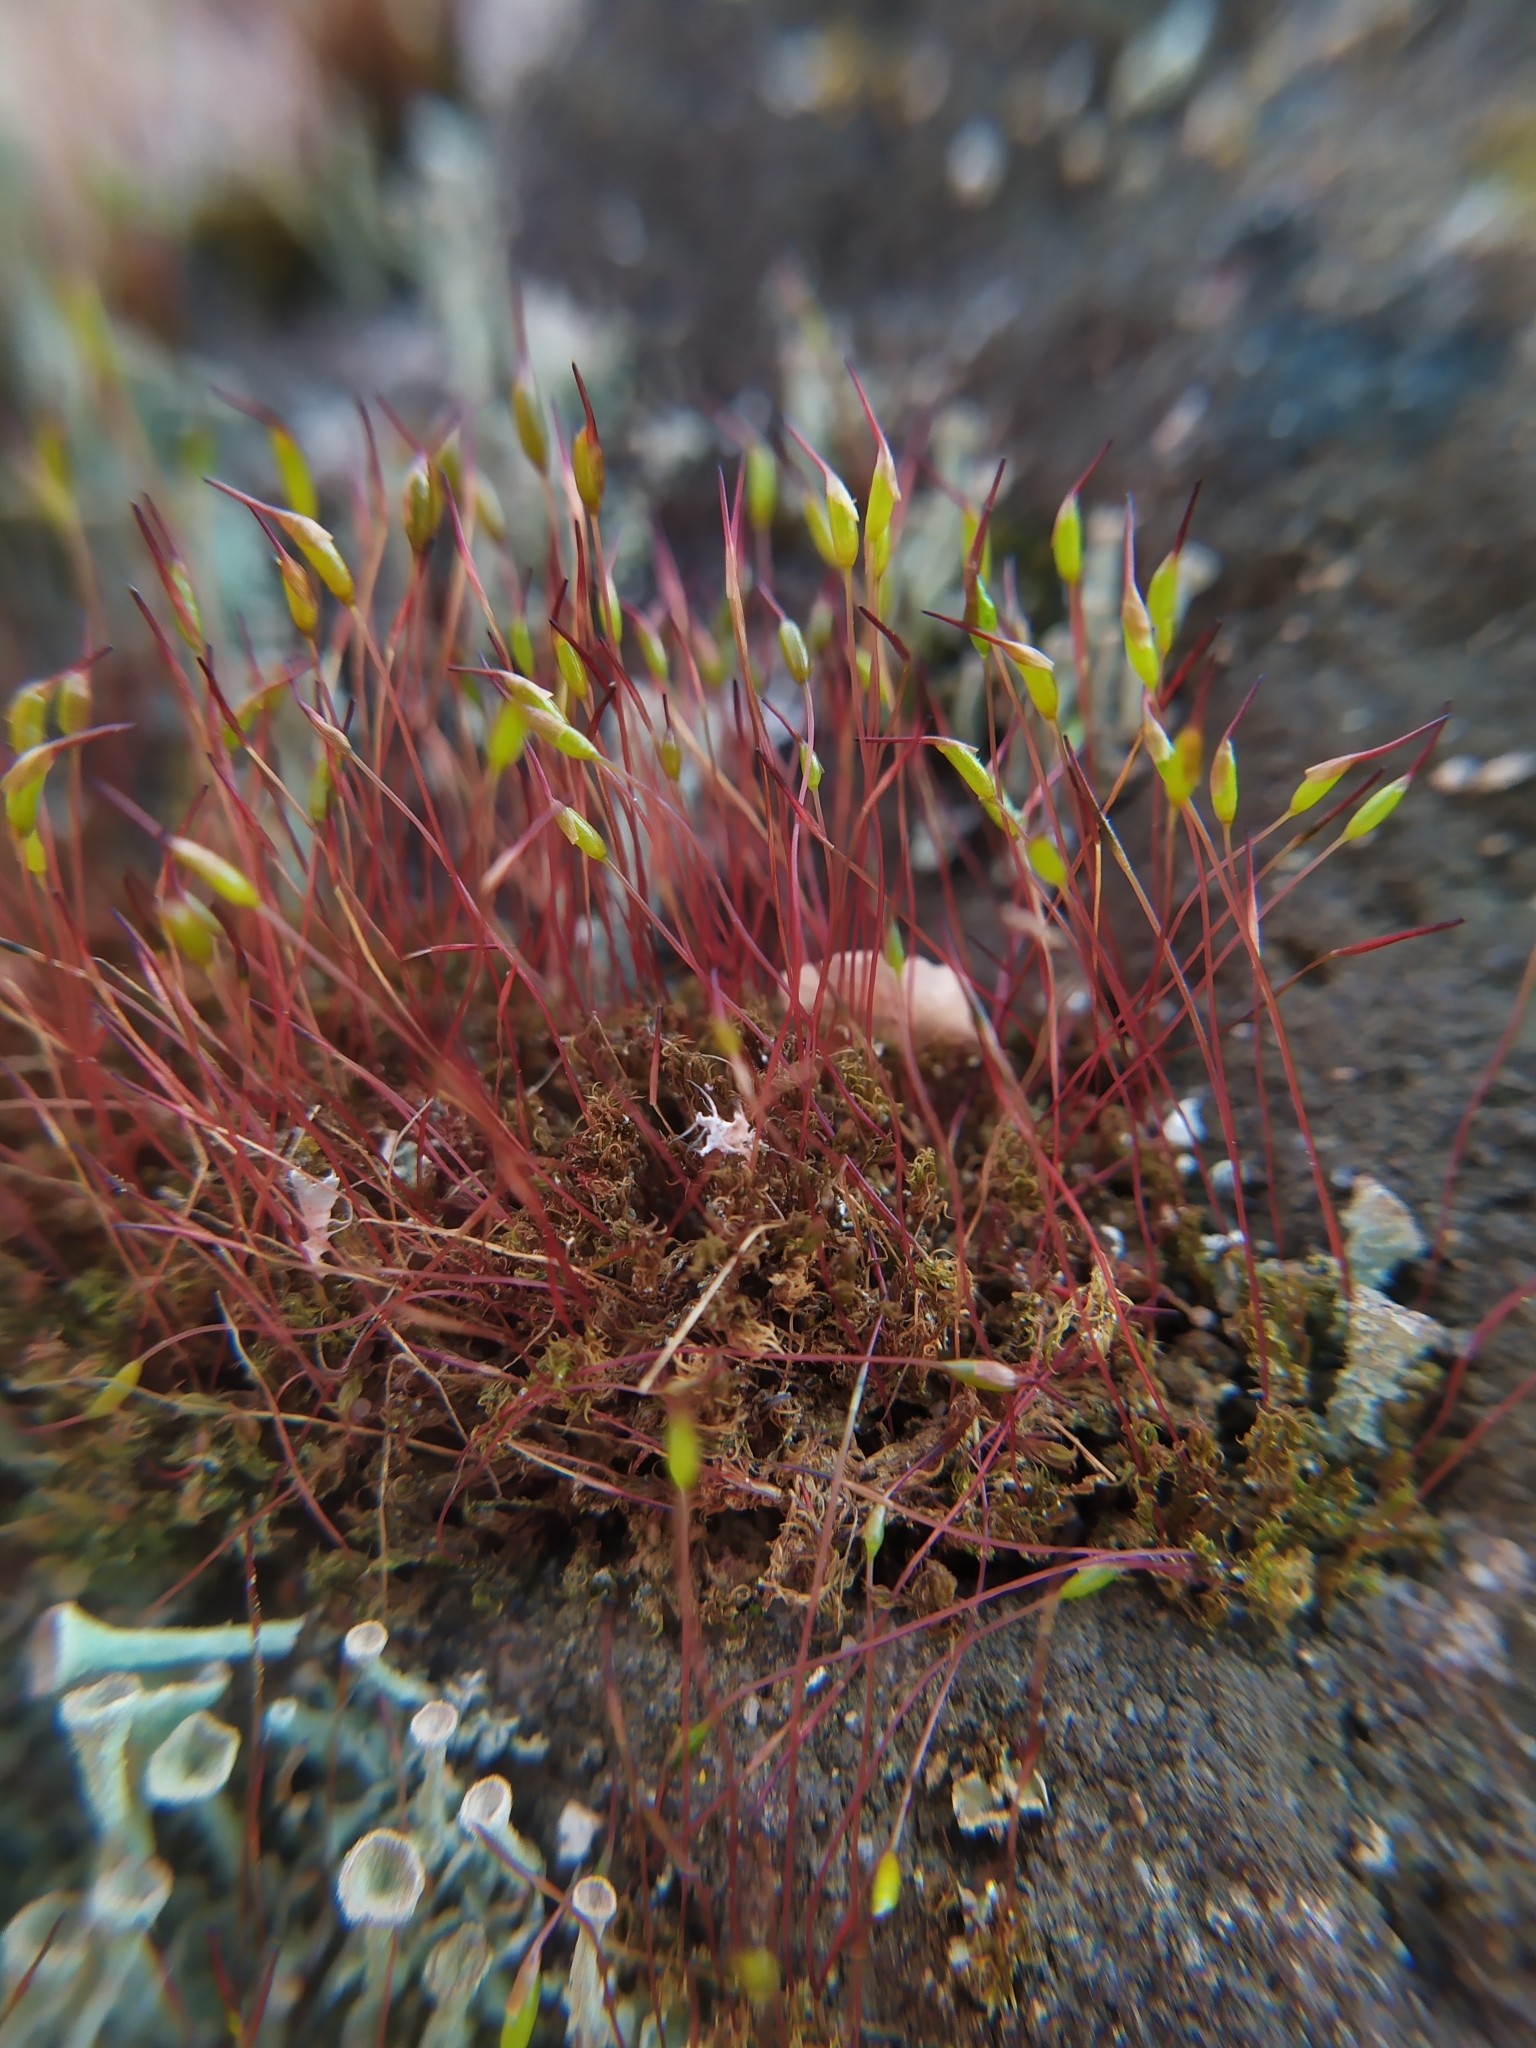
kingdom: Plantae
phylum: Bryophyta
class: Bryopsida
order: Dicranales
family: Ditrichaceae
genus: Ceratodon
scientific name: Ceratodon purpureus
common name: Redshank
